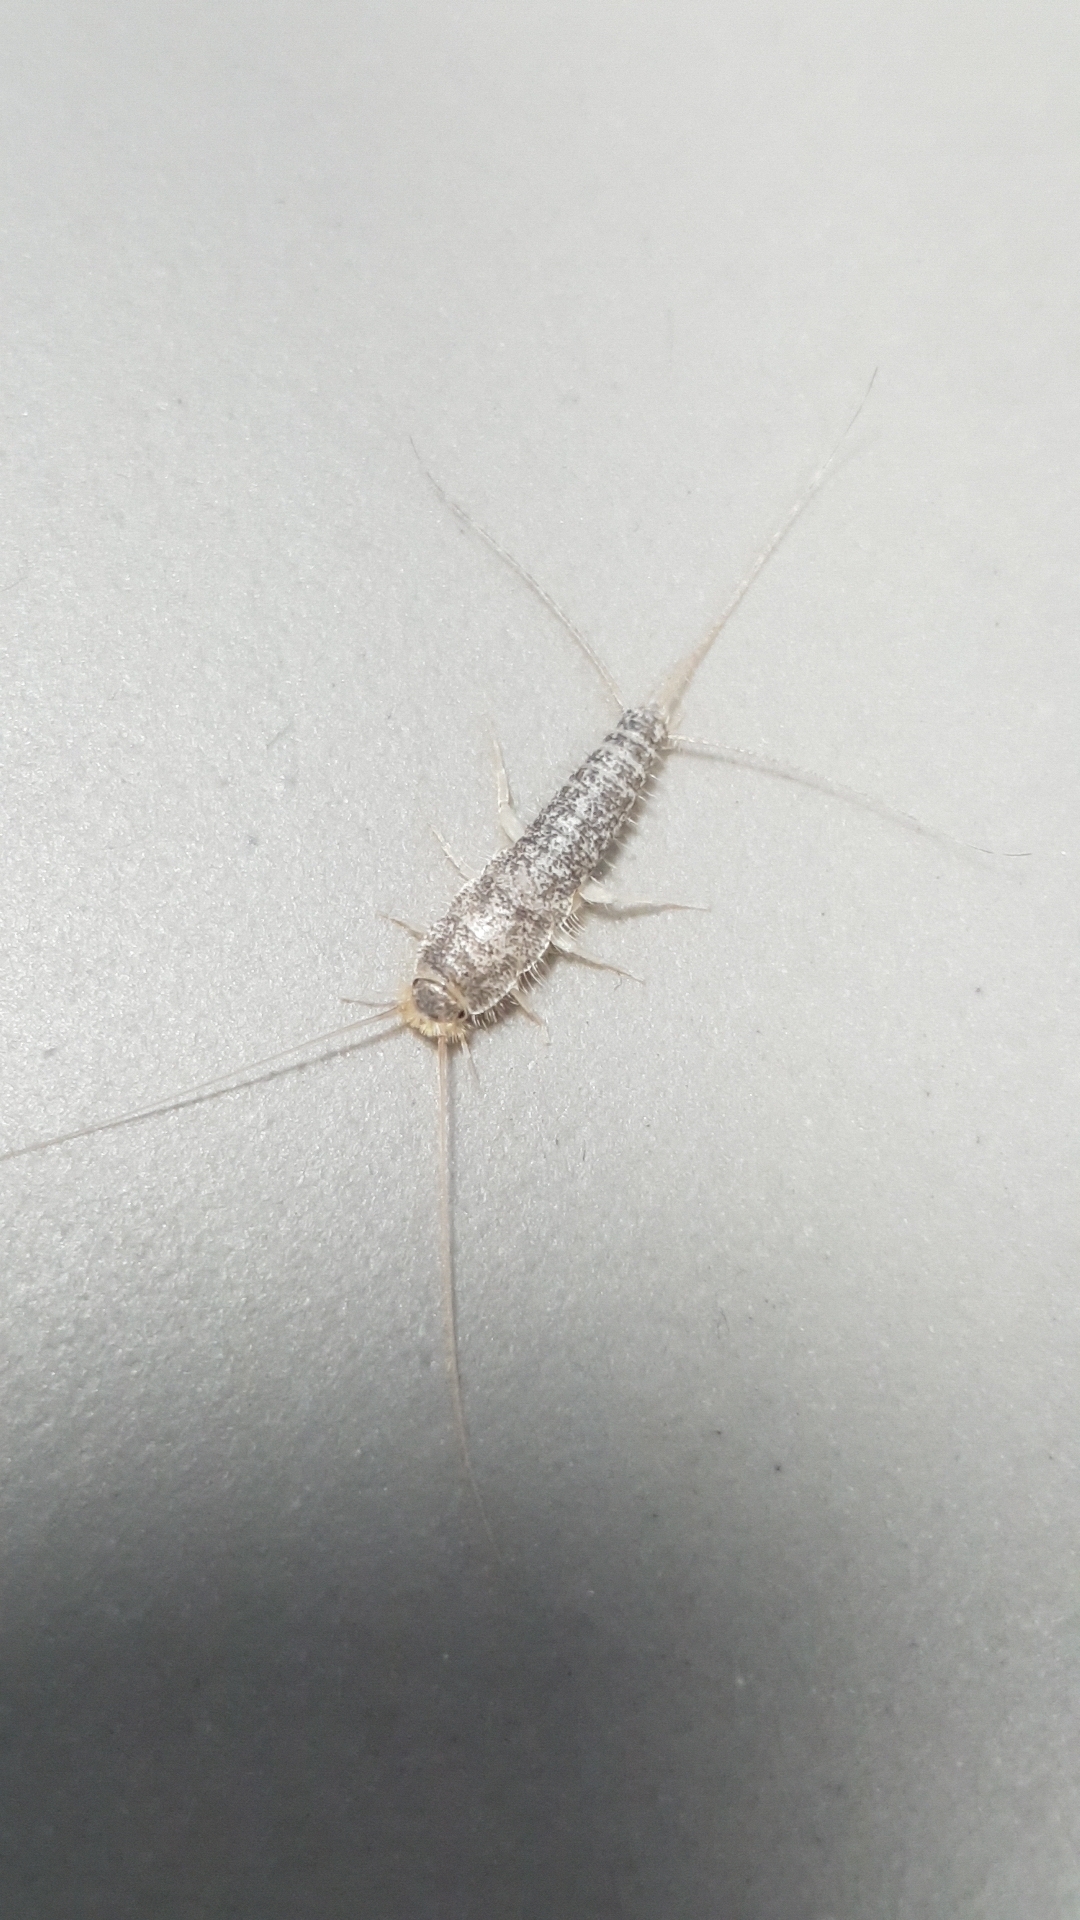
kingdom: Animalia
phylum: Arthropoda
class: Insecta
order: Zygentoma
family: Lepismatidae
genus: Ctenolepisma
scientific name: Ctenolepisma longicaudatum
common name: Silverfish
